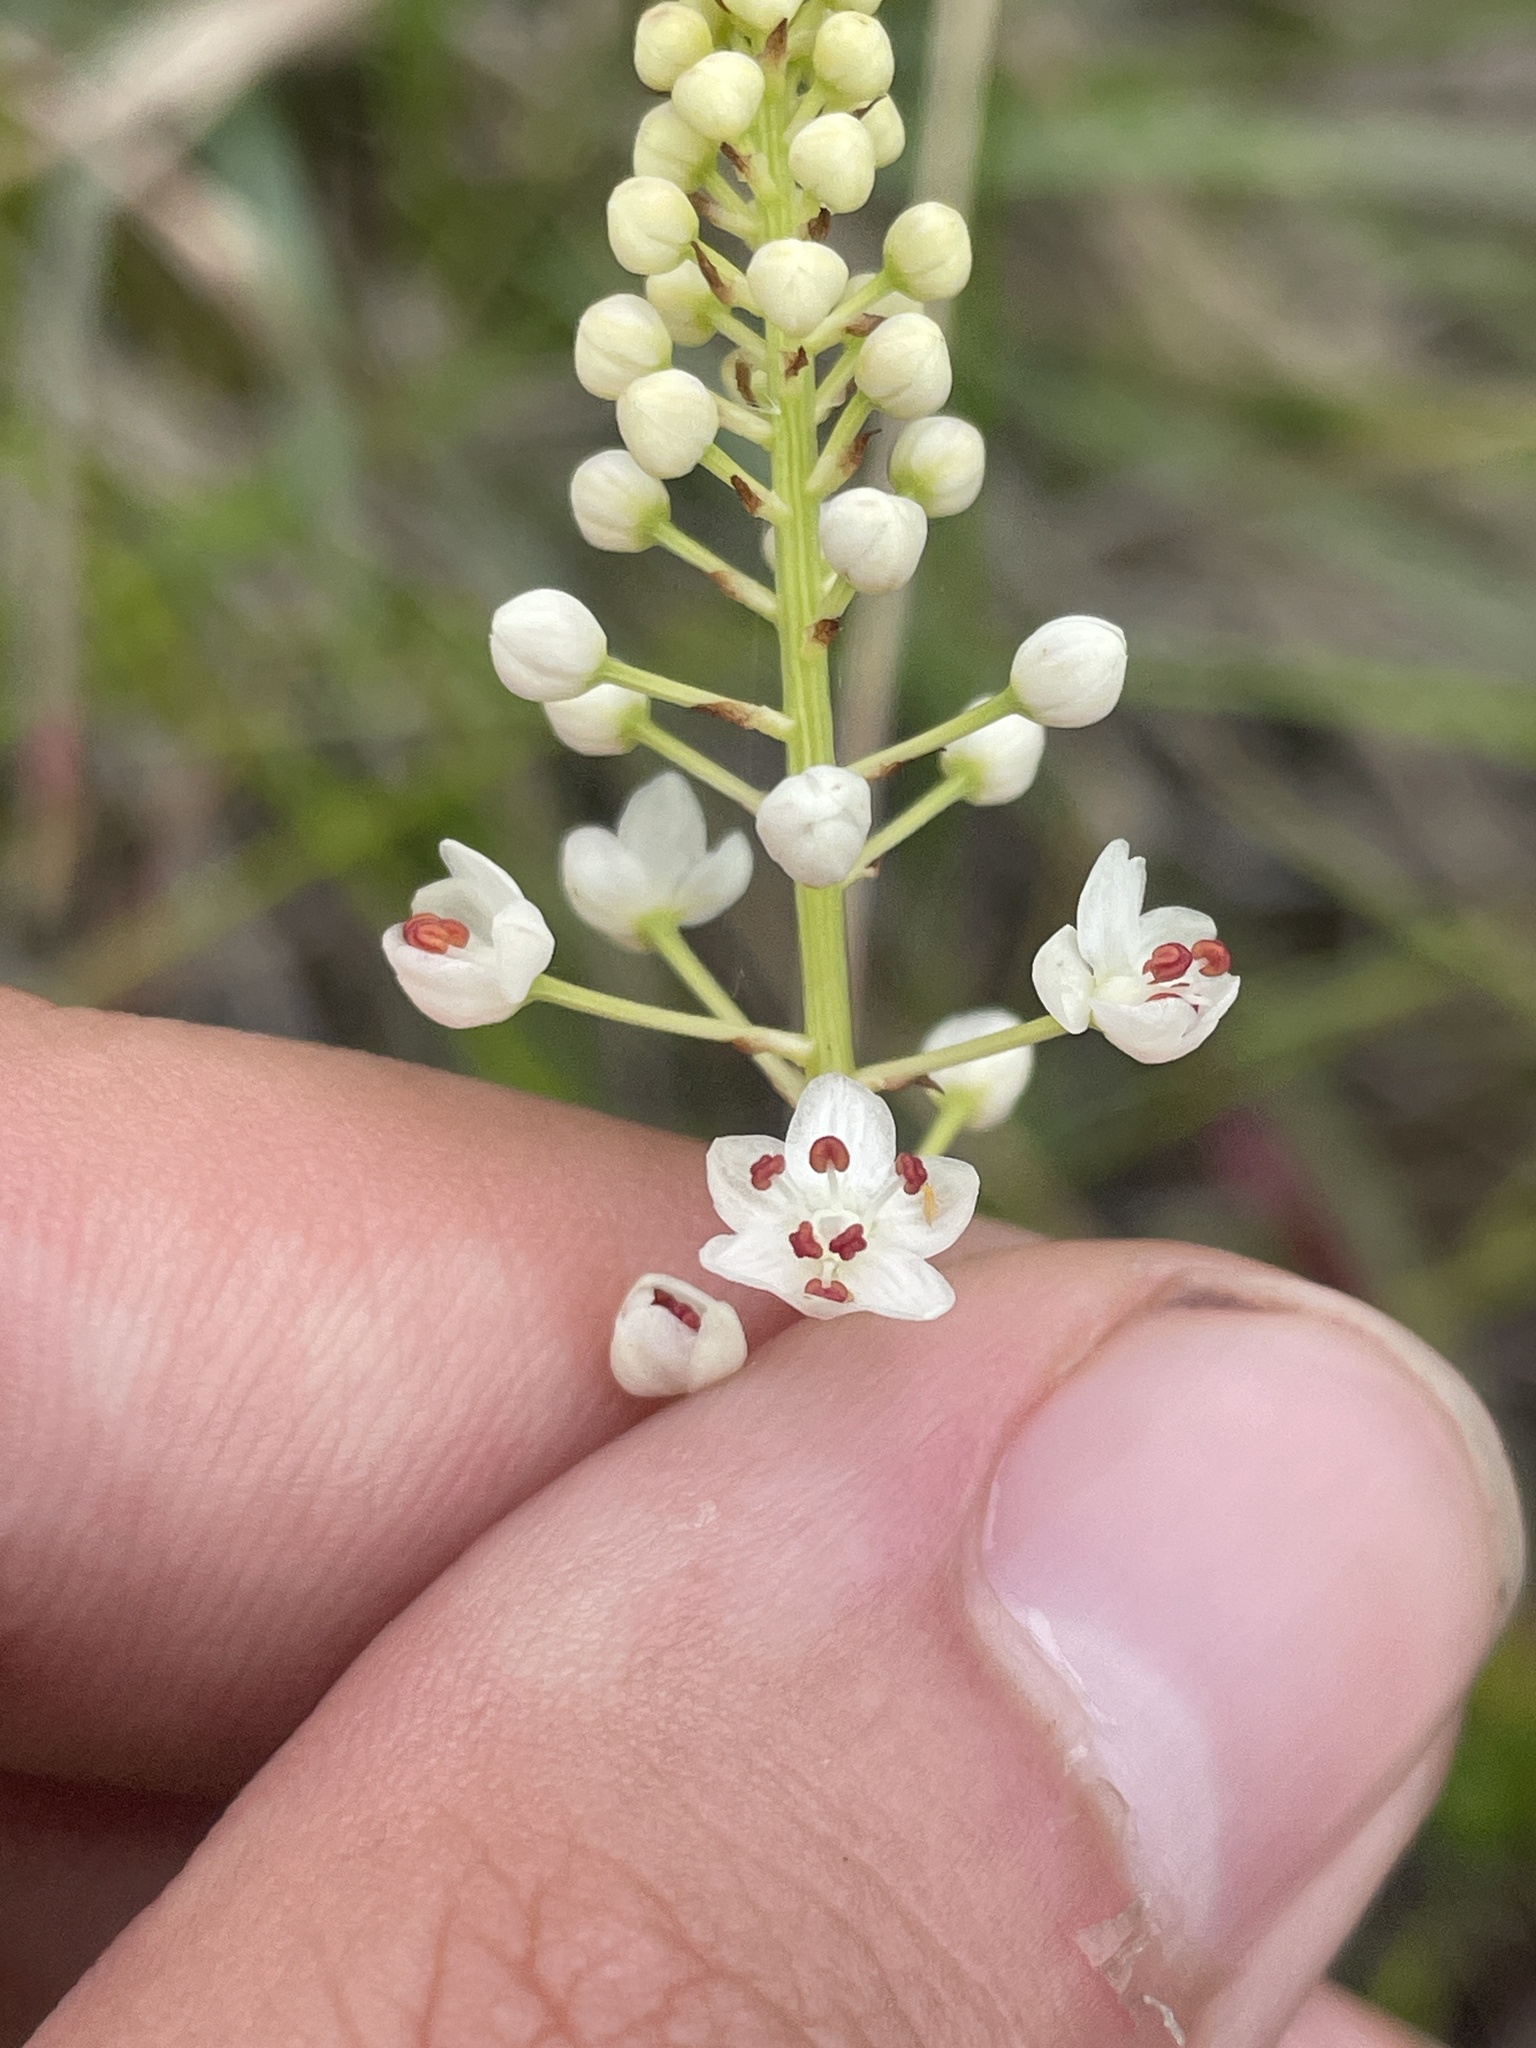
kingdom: Plantae
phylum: Tracheophyta
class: Liliopsida
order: Liliales
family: Melanthiaceae
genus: Stenanthium
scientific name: Stenanthium densum
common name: Crow-poison
